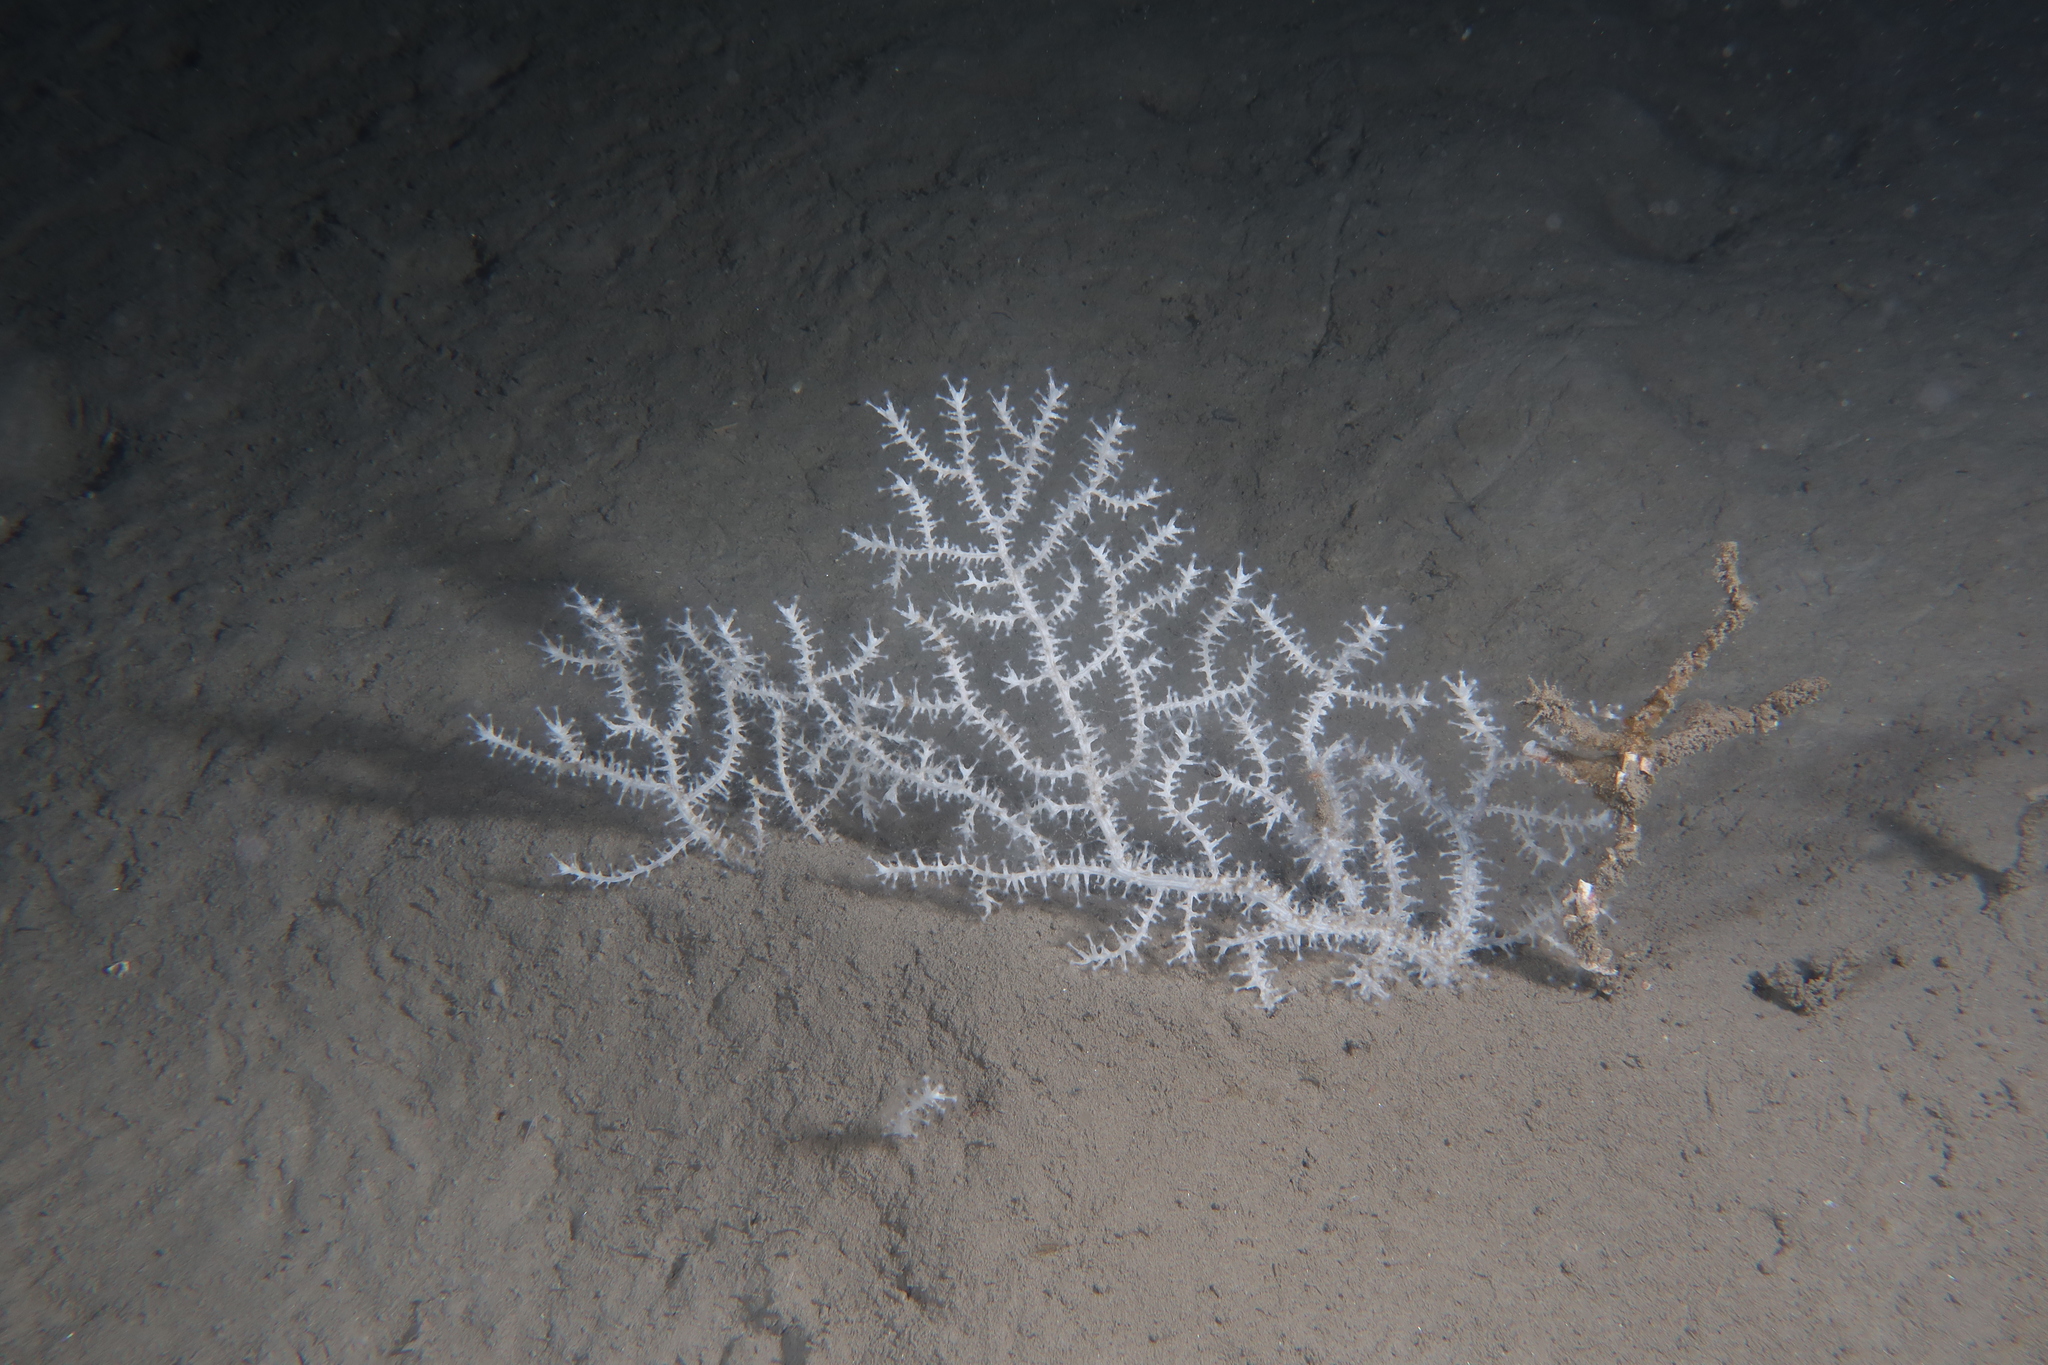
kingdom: Animalia
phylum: Cnidaria
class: Anthozoa
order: Malacalcyonacea
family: Eunicellidae
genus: Eunicella
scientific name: Eunicella verrucosa
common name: Pink sea-fan
